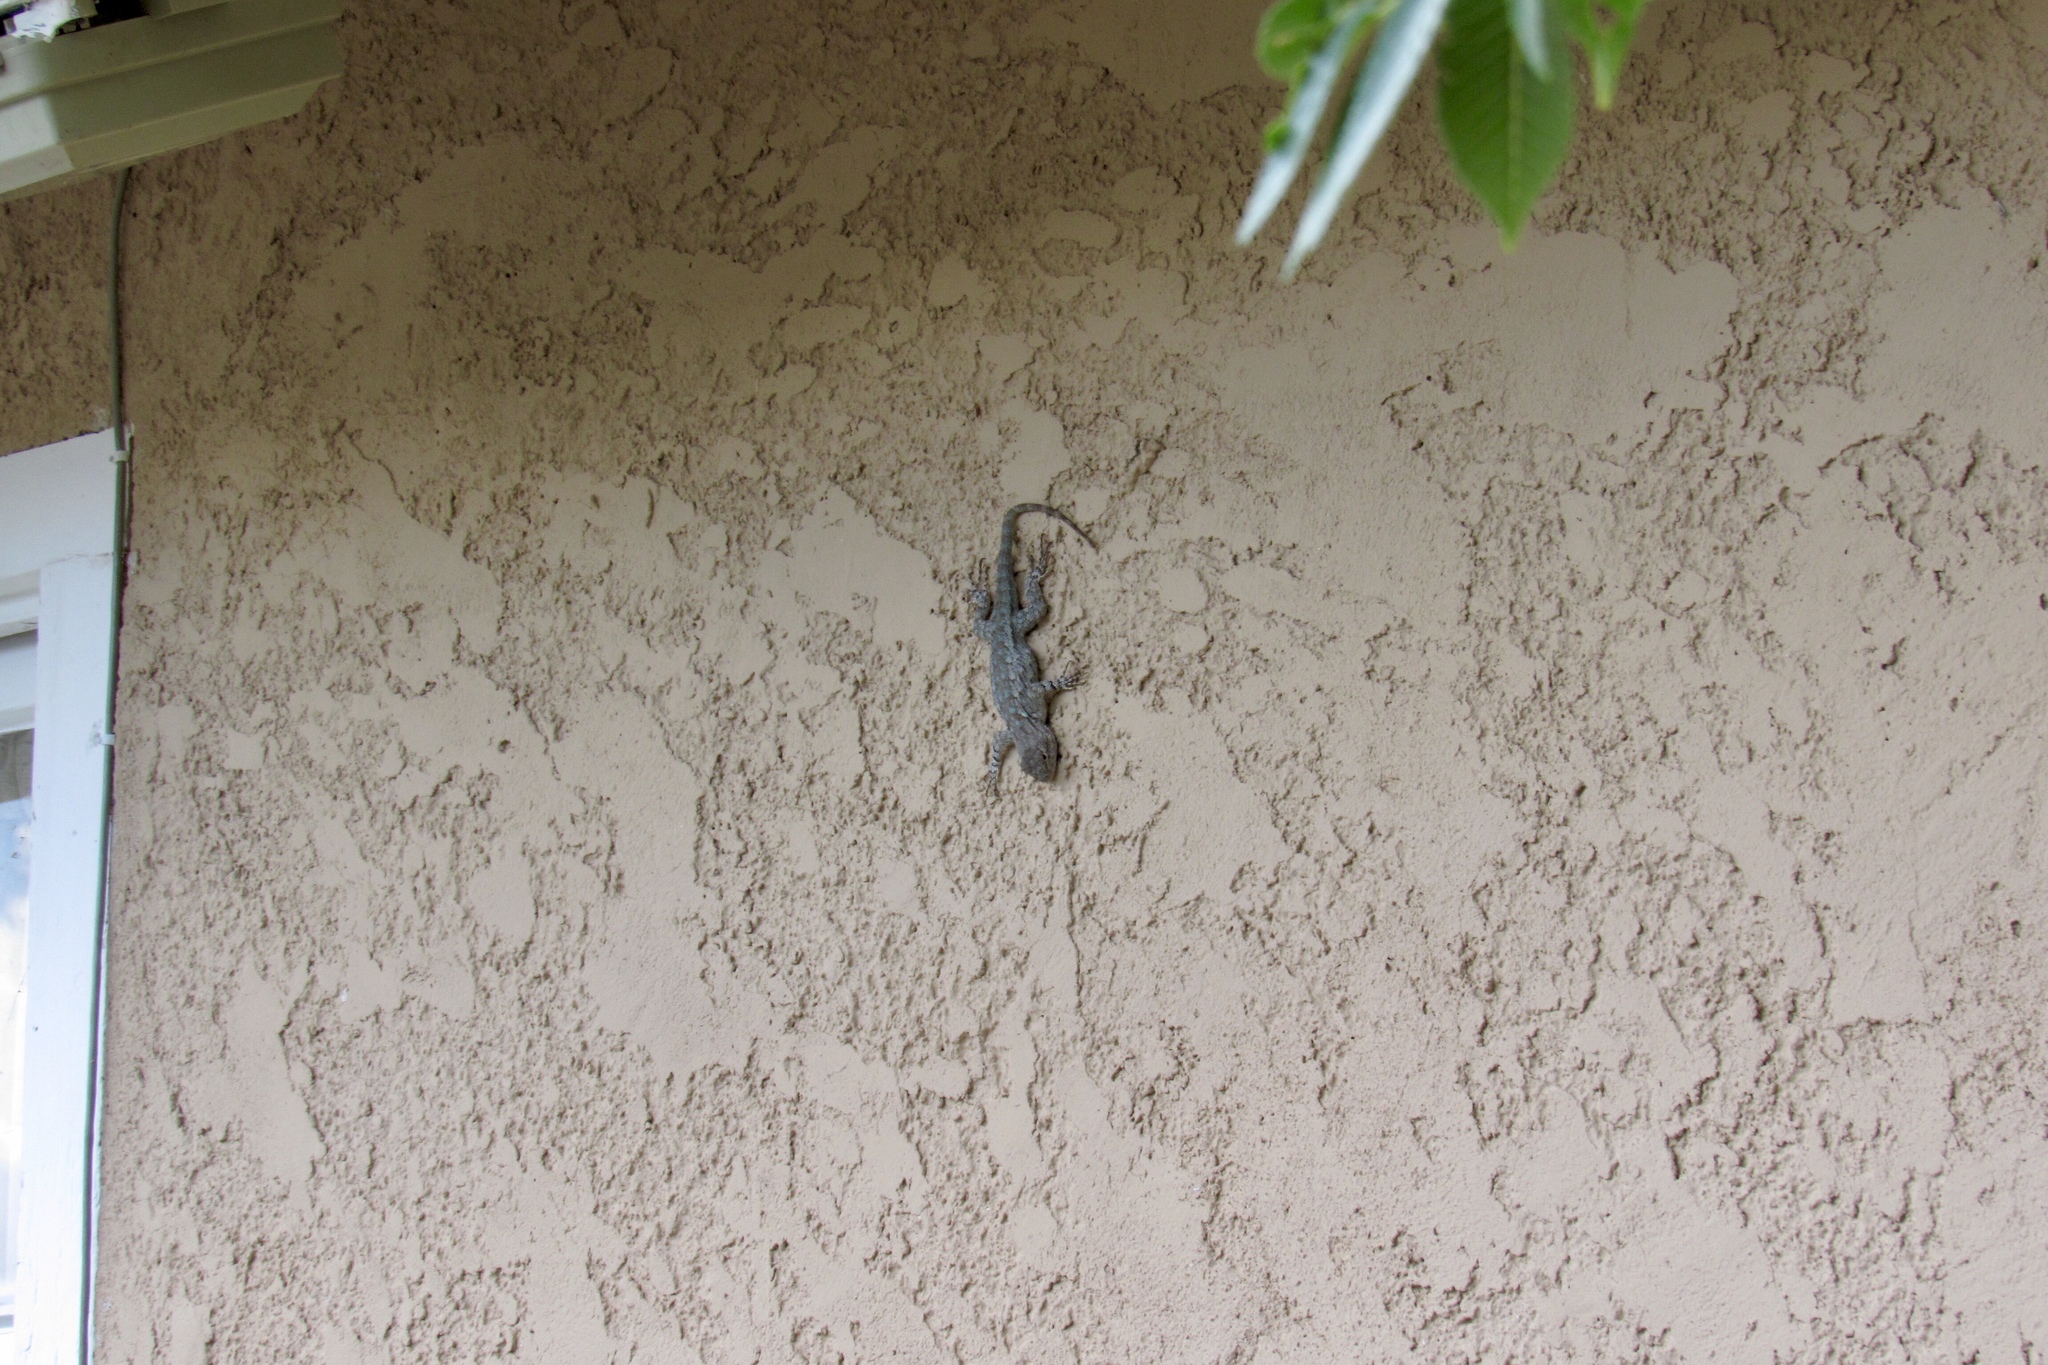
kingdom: Animalia
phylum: Chordata
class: Squamata
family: Phrynosomatidae
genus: Sceloporus
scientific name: Sceloporus clarkii
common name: Clark's spiny lizard
